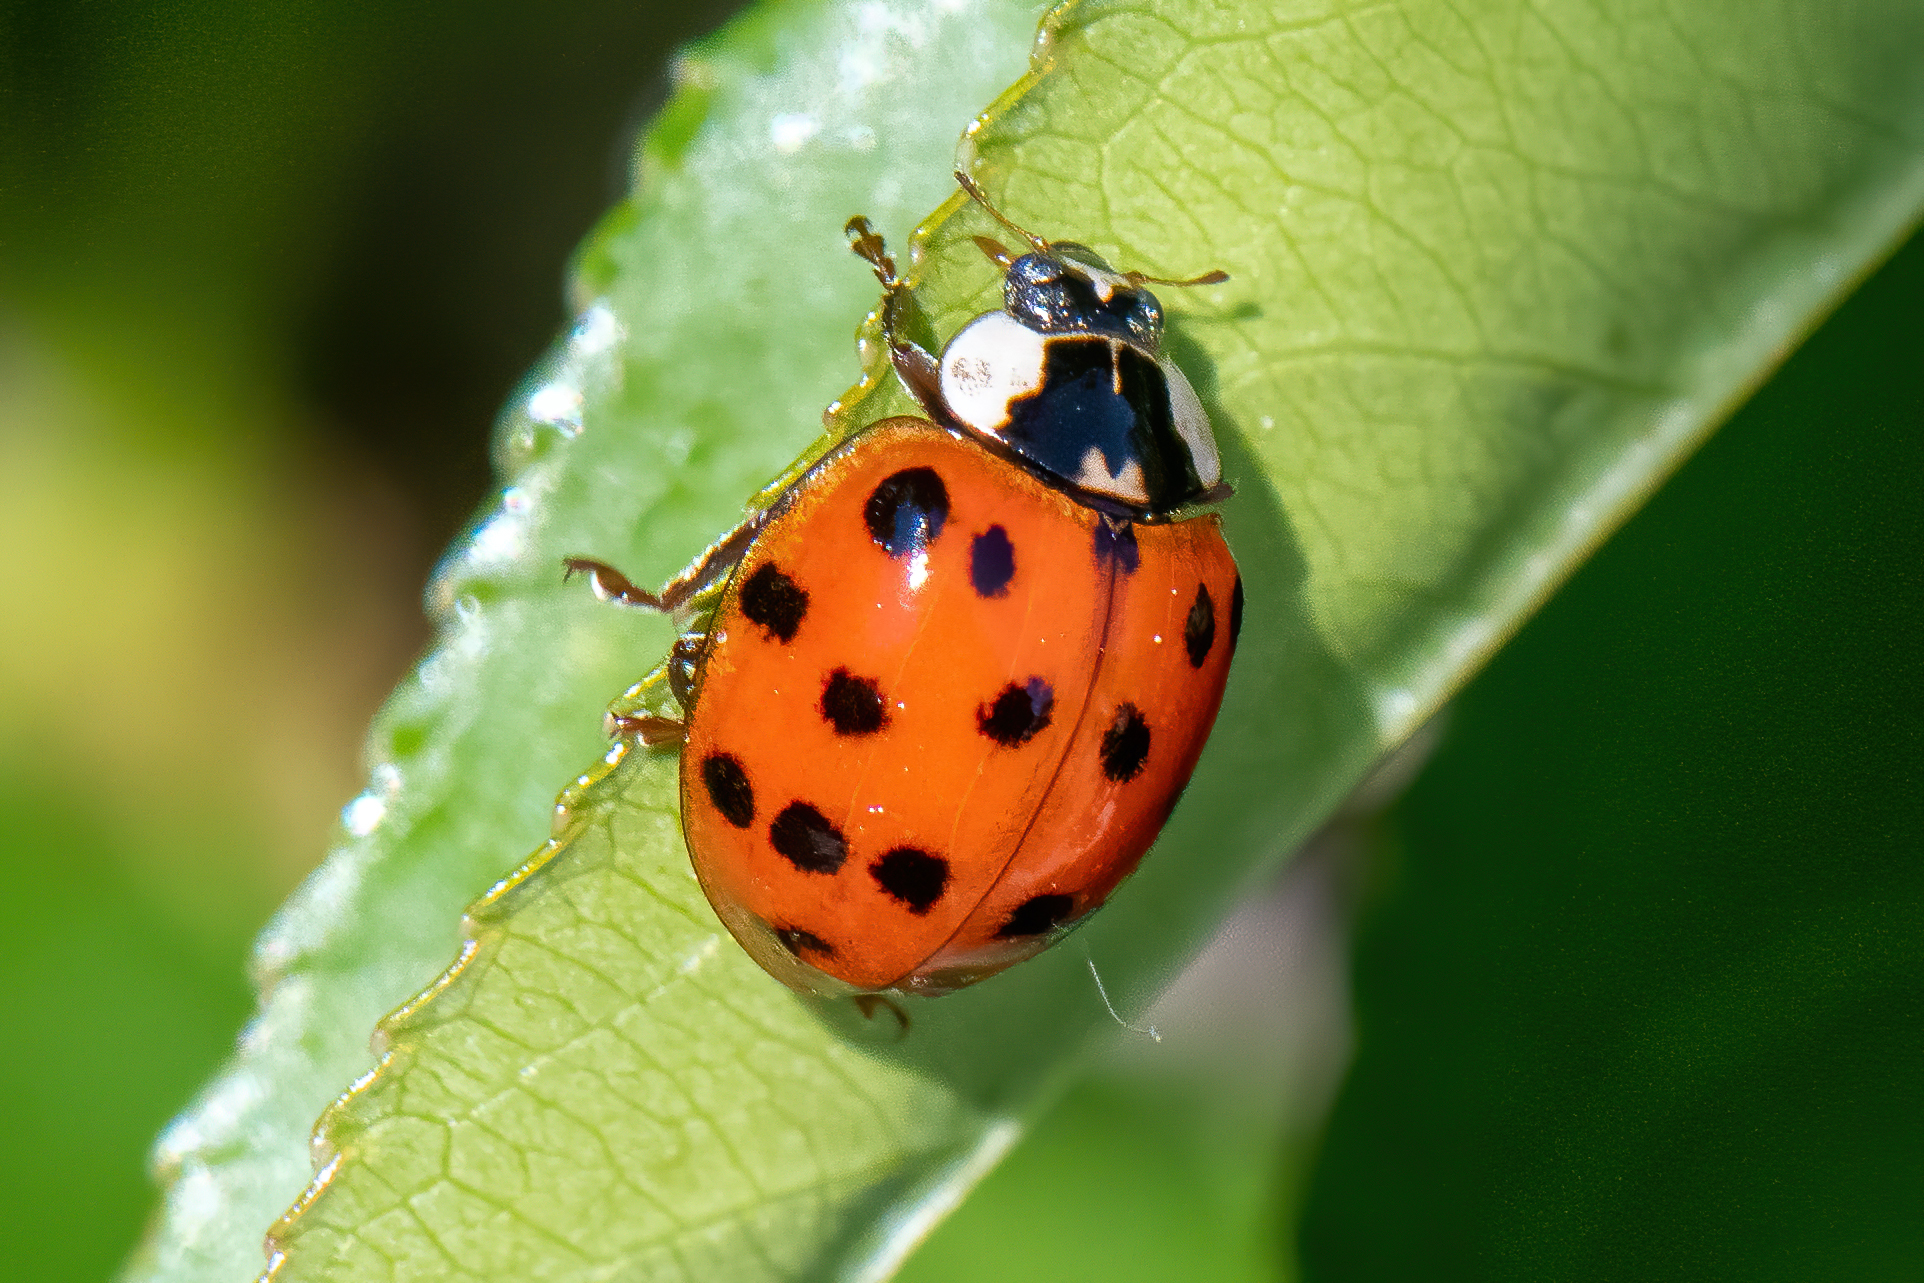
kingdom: Animalia
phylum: Arthropoda
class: Insecta
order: Coleoptera
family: Coccinellidae
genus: Harmonia
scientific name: Harmonia axyridis
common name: Harlequin ladybird
